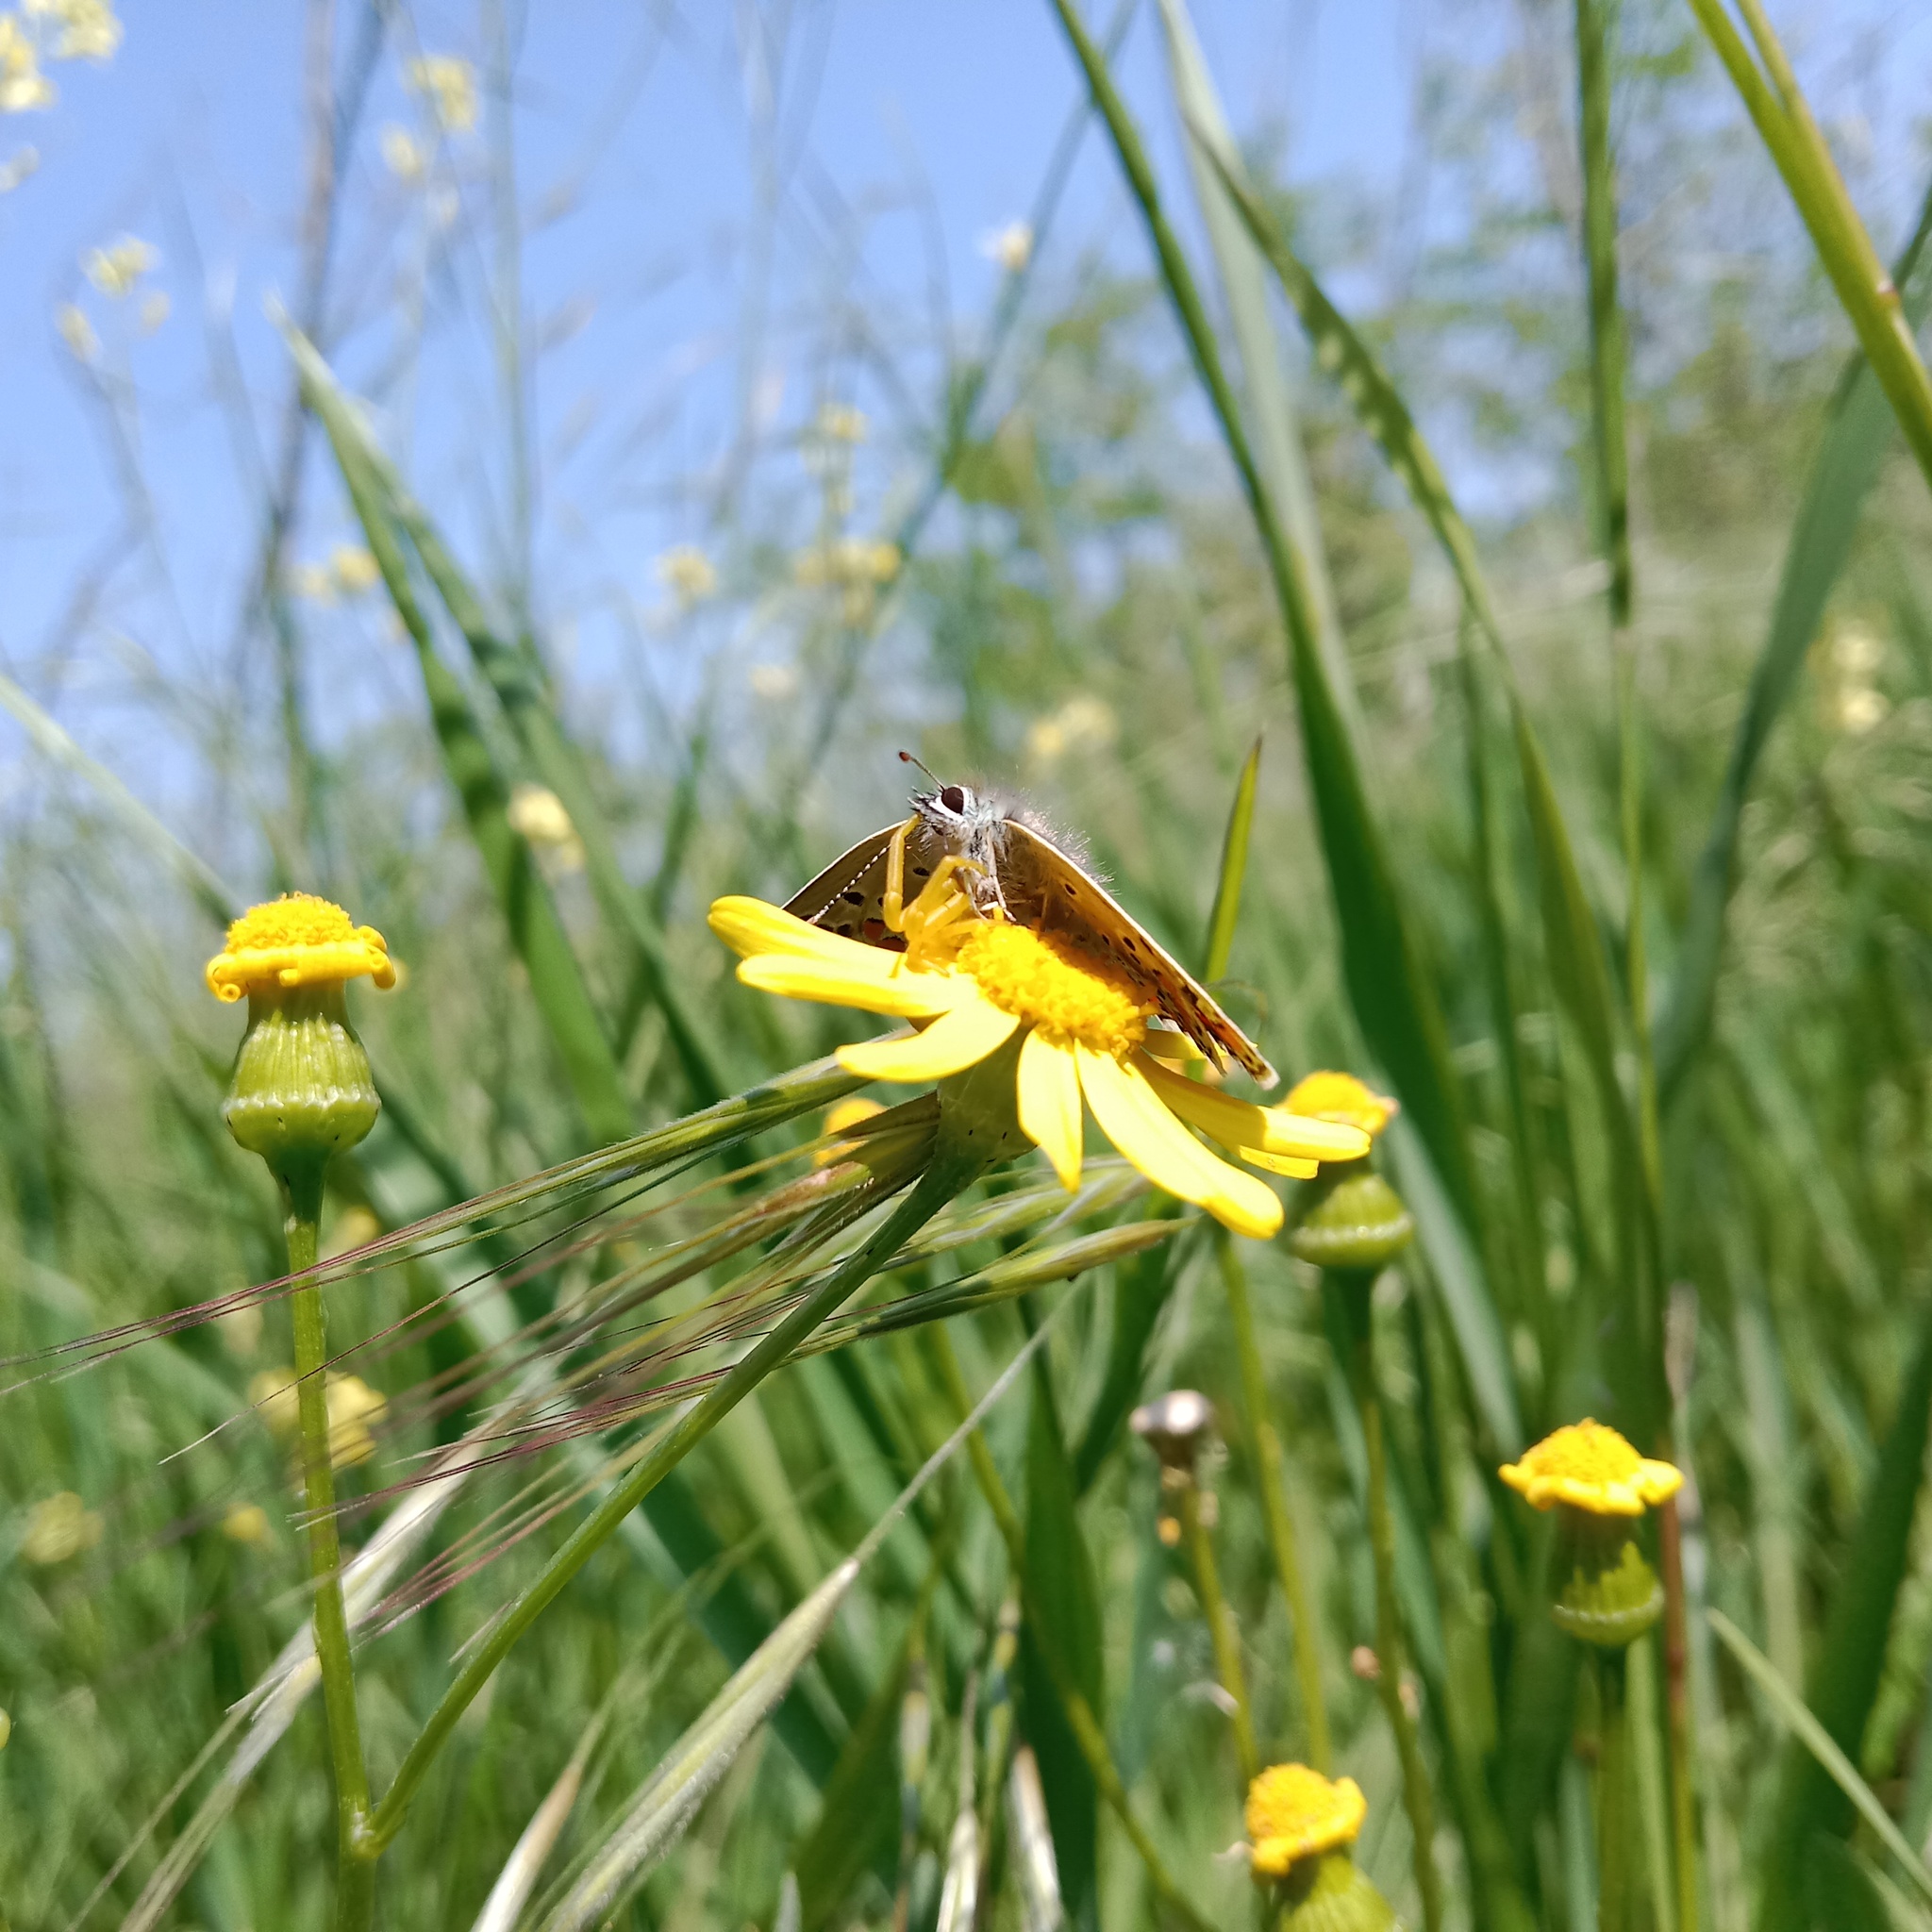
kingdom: Animalia
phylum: Arthropoda
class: Insecta
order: Lepidoptera
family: Lycaenidae
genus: Aricia
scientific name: Aricia agestis
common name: Brown argus
